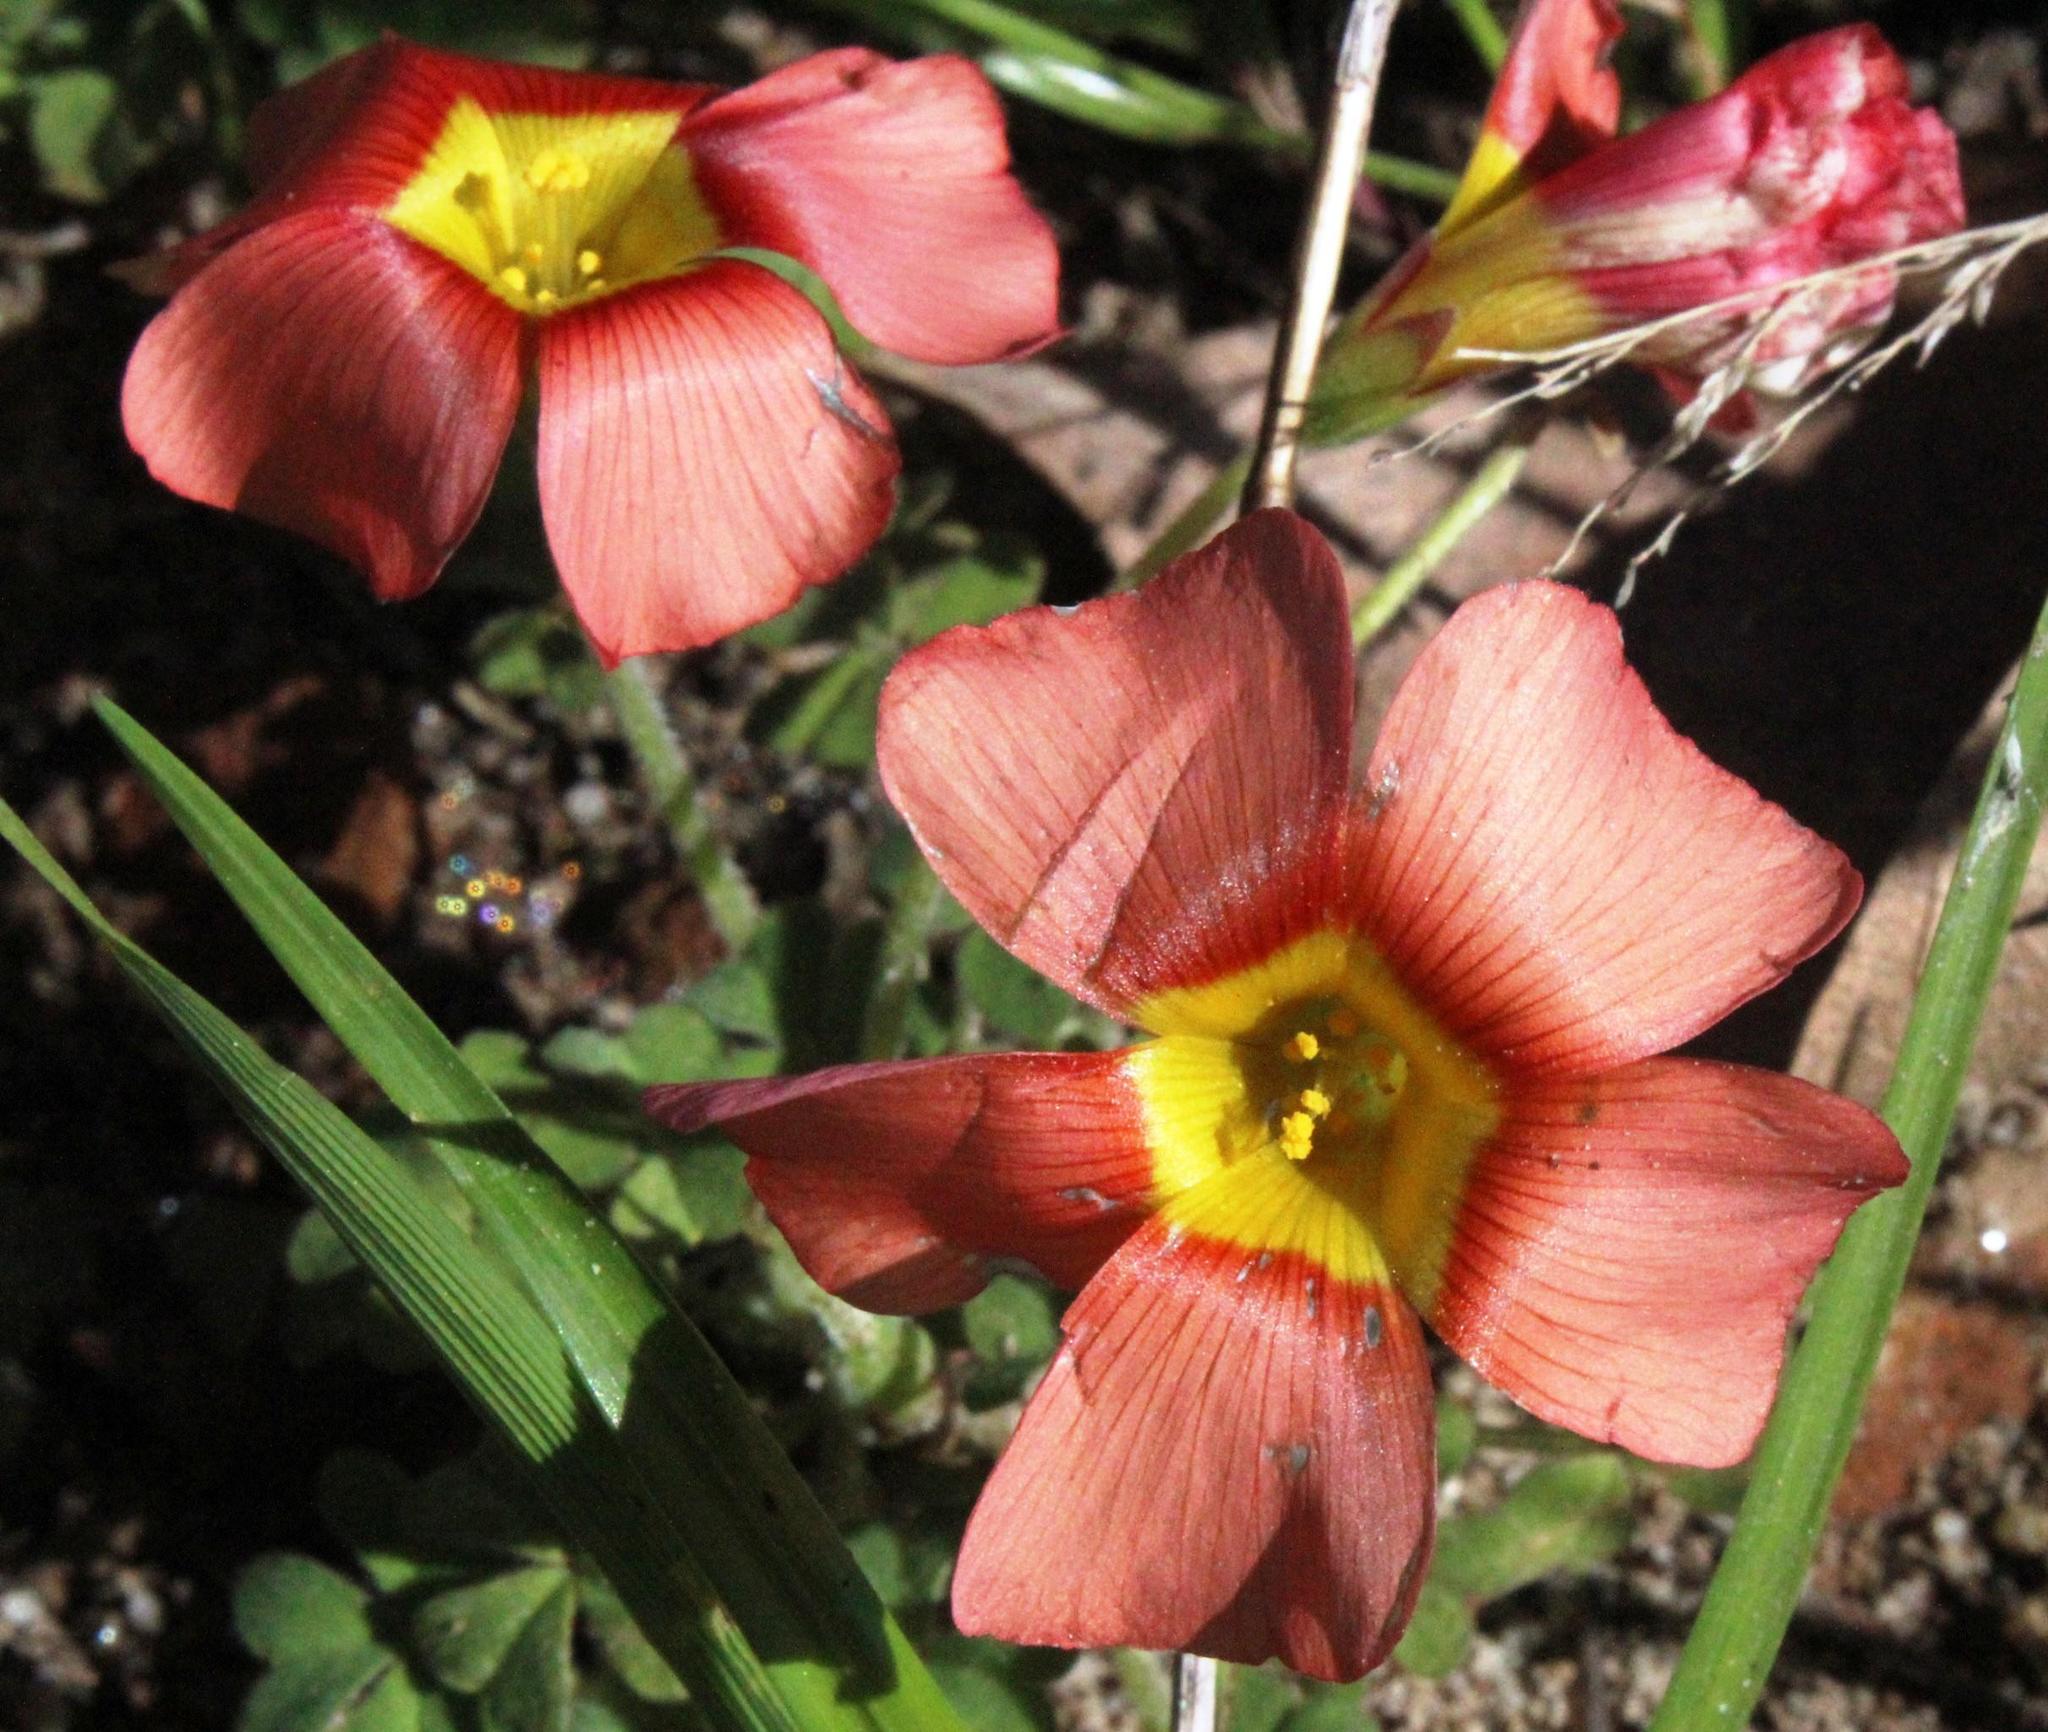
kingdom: Plantae
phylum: Tracheophyta
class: Magnoliopsida
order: Oxalidales
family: Oxalidaceae
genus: Oxalis
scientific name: Oxalis obtusa
